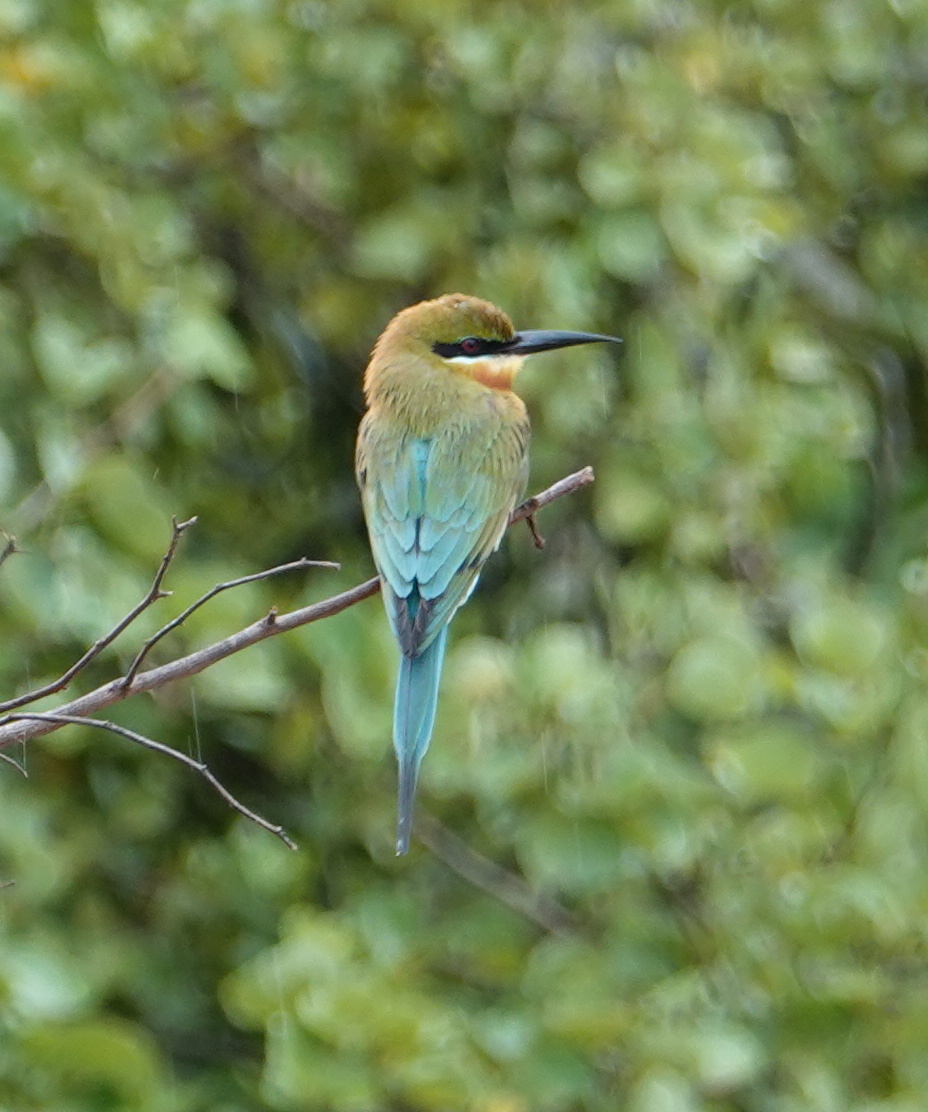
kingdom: Animalia
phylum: Chordata
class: Aves
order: Coraciiformes
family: Meropidae
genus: Merops
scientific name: Merops philippinus
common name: Blue-tailed bee-eater
